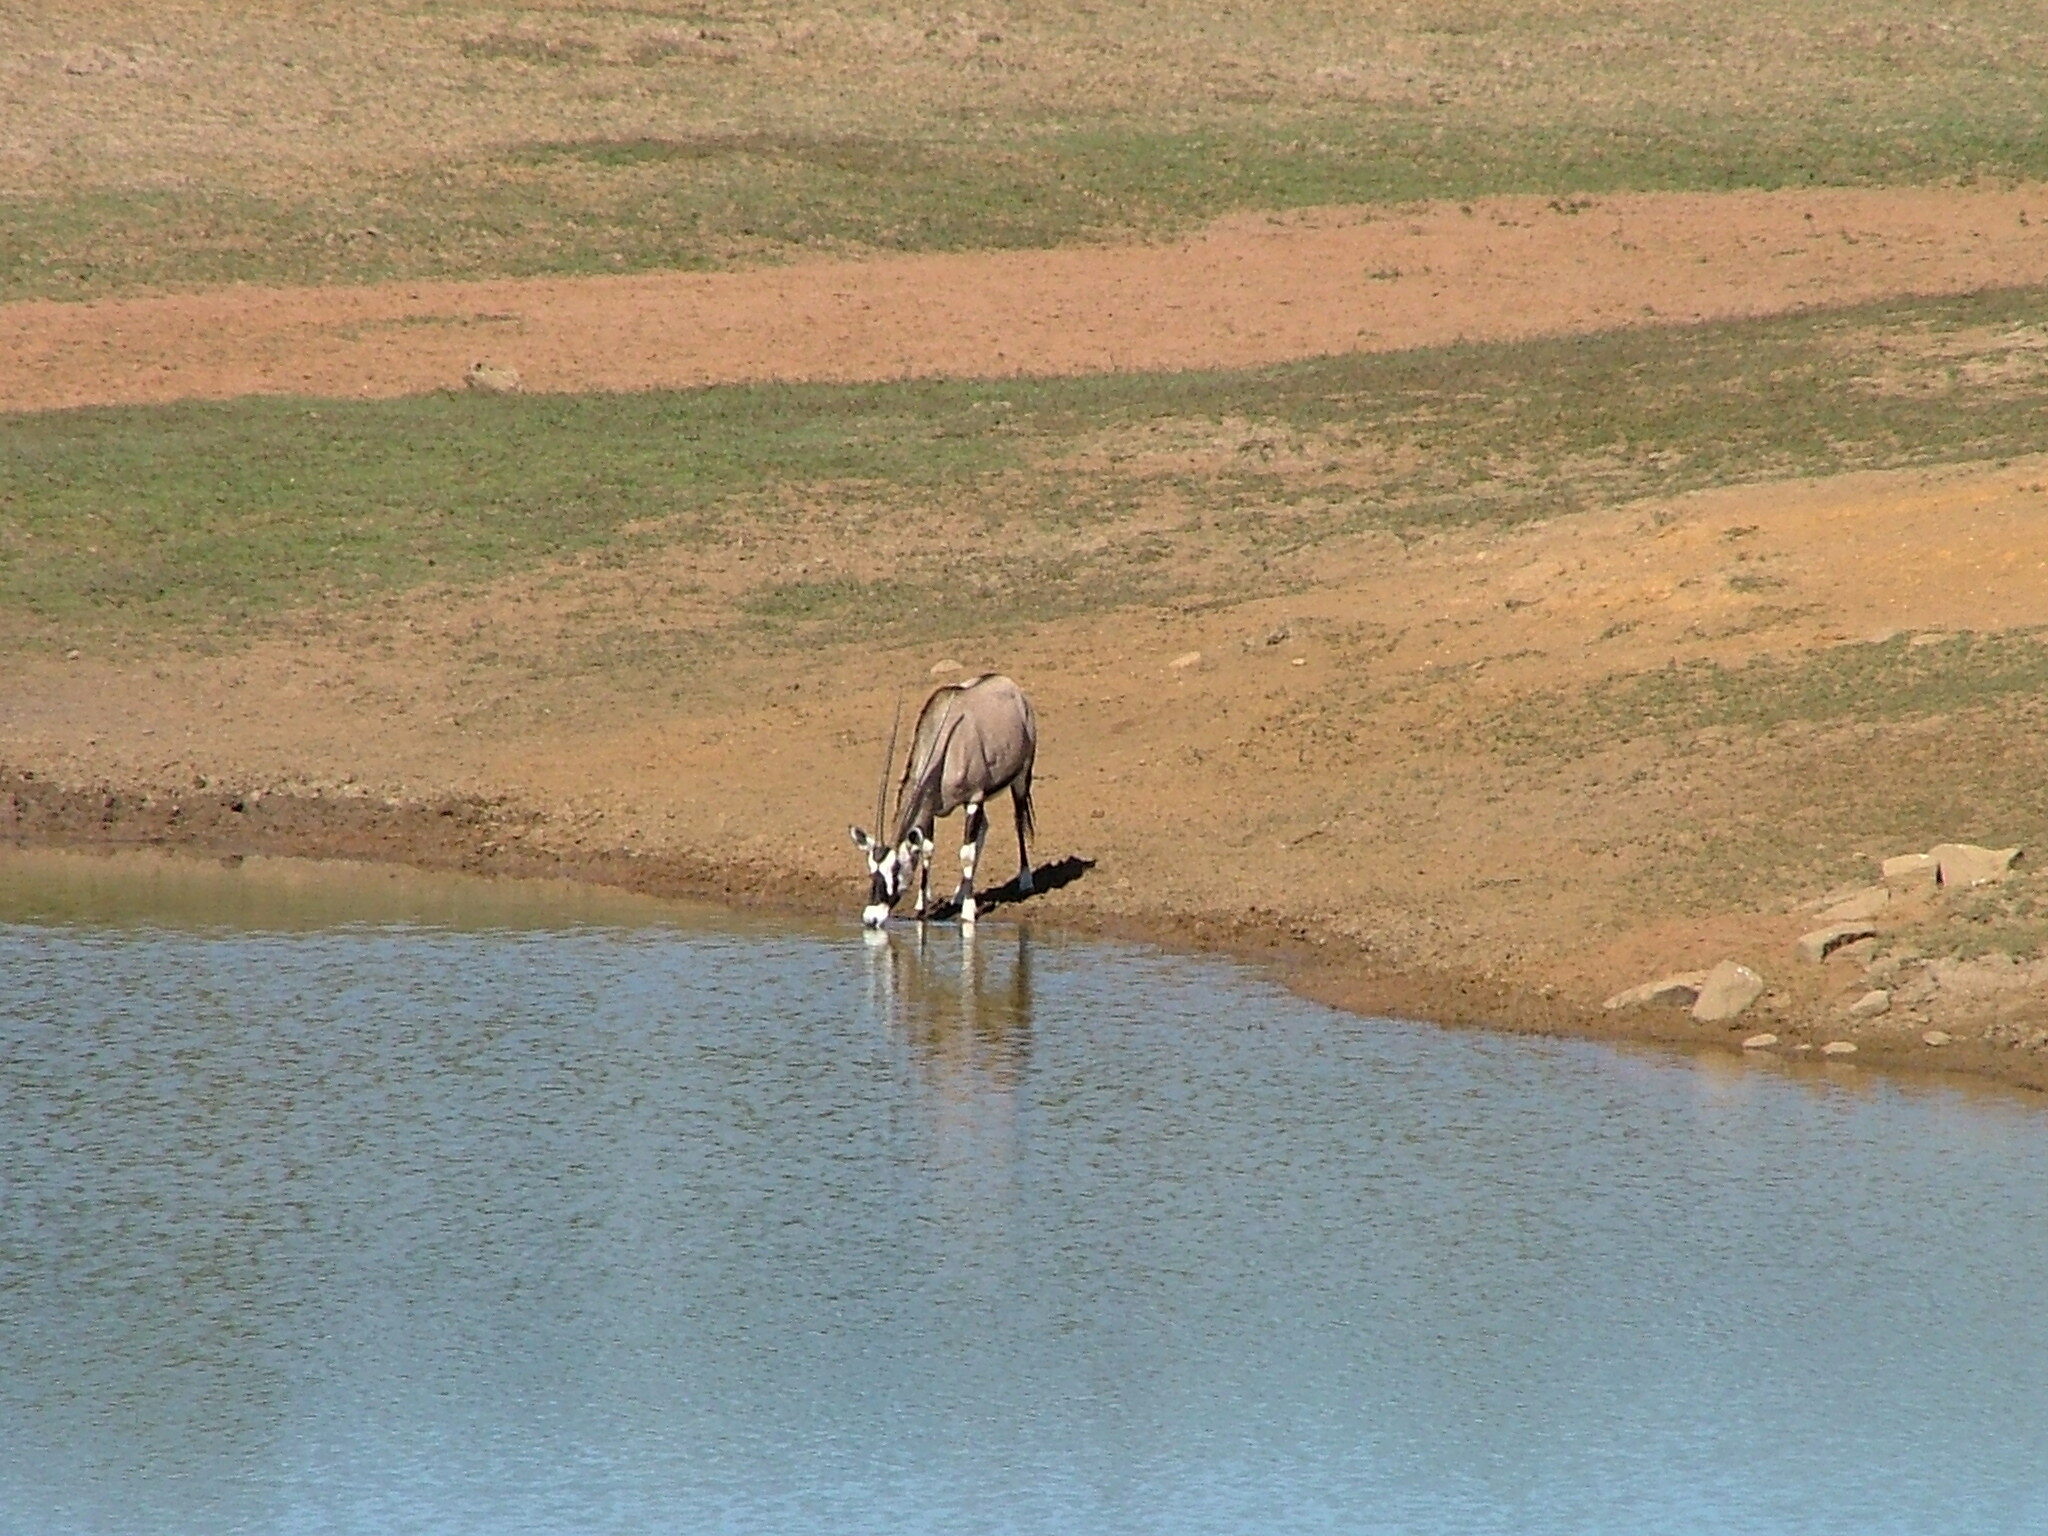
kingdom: Animalia
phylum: Chordata
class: Mammalia
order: Artiodactyla
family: Bovidae
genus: Oryx
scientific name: Oryx gazella
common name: Gemsbok
